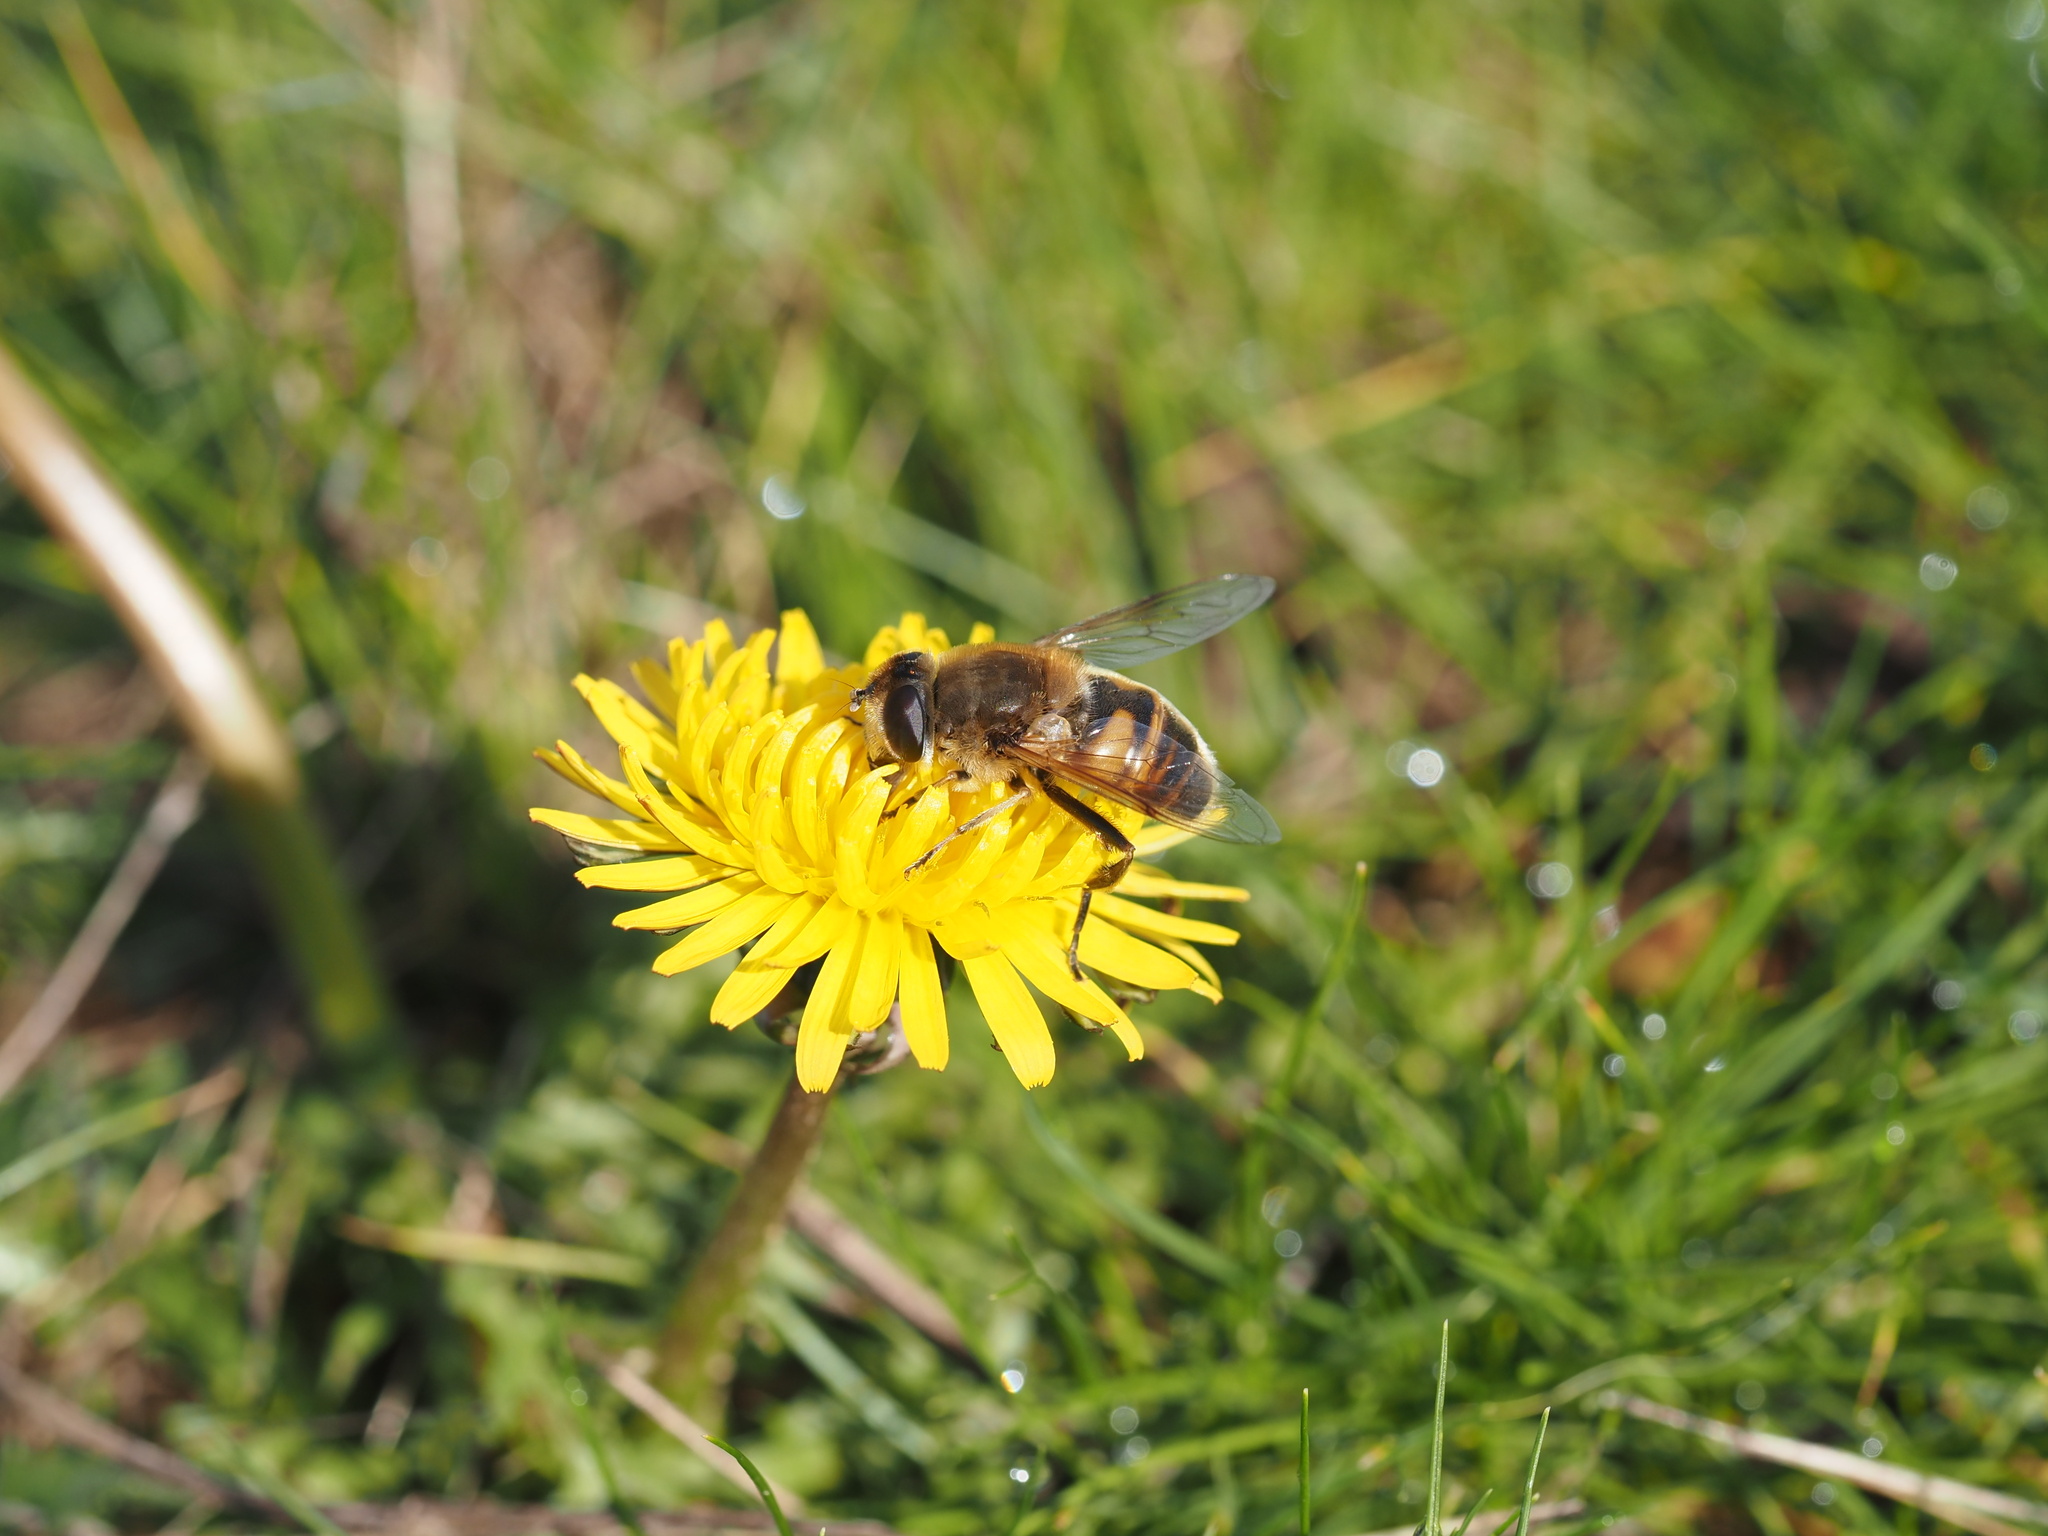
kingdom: Animalia
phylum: Arthropoda
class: Insecta
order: Diptera
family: Syrphidae
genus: Eristalis
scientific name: Eristalis tenax
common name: Drone fly
